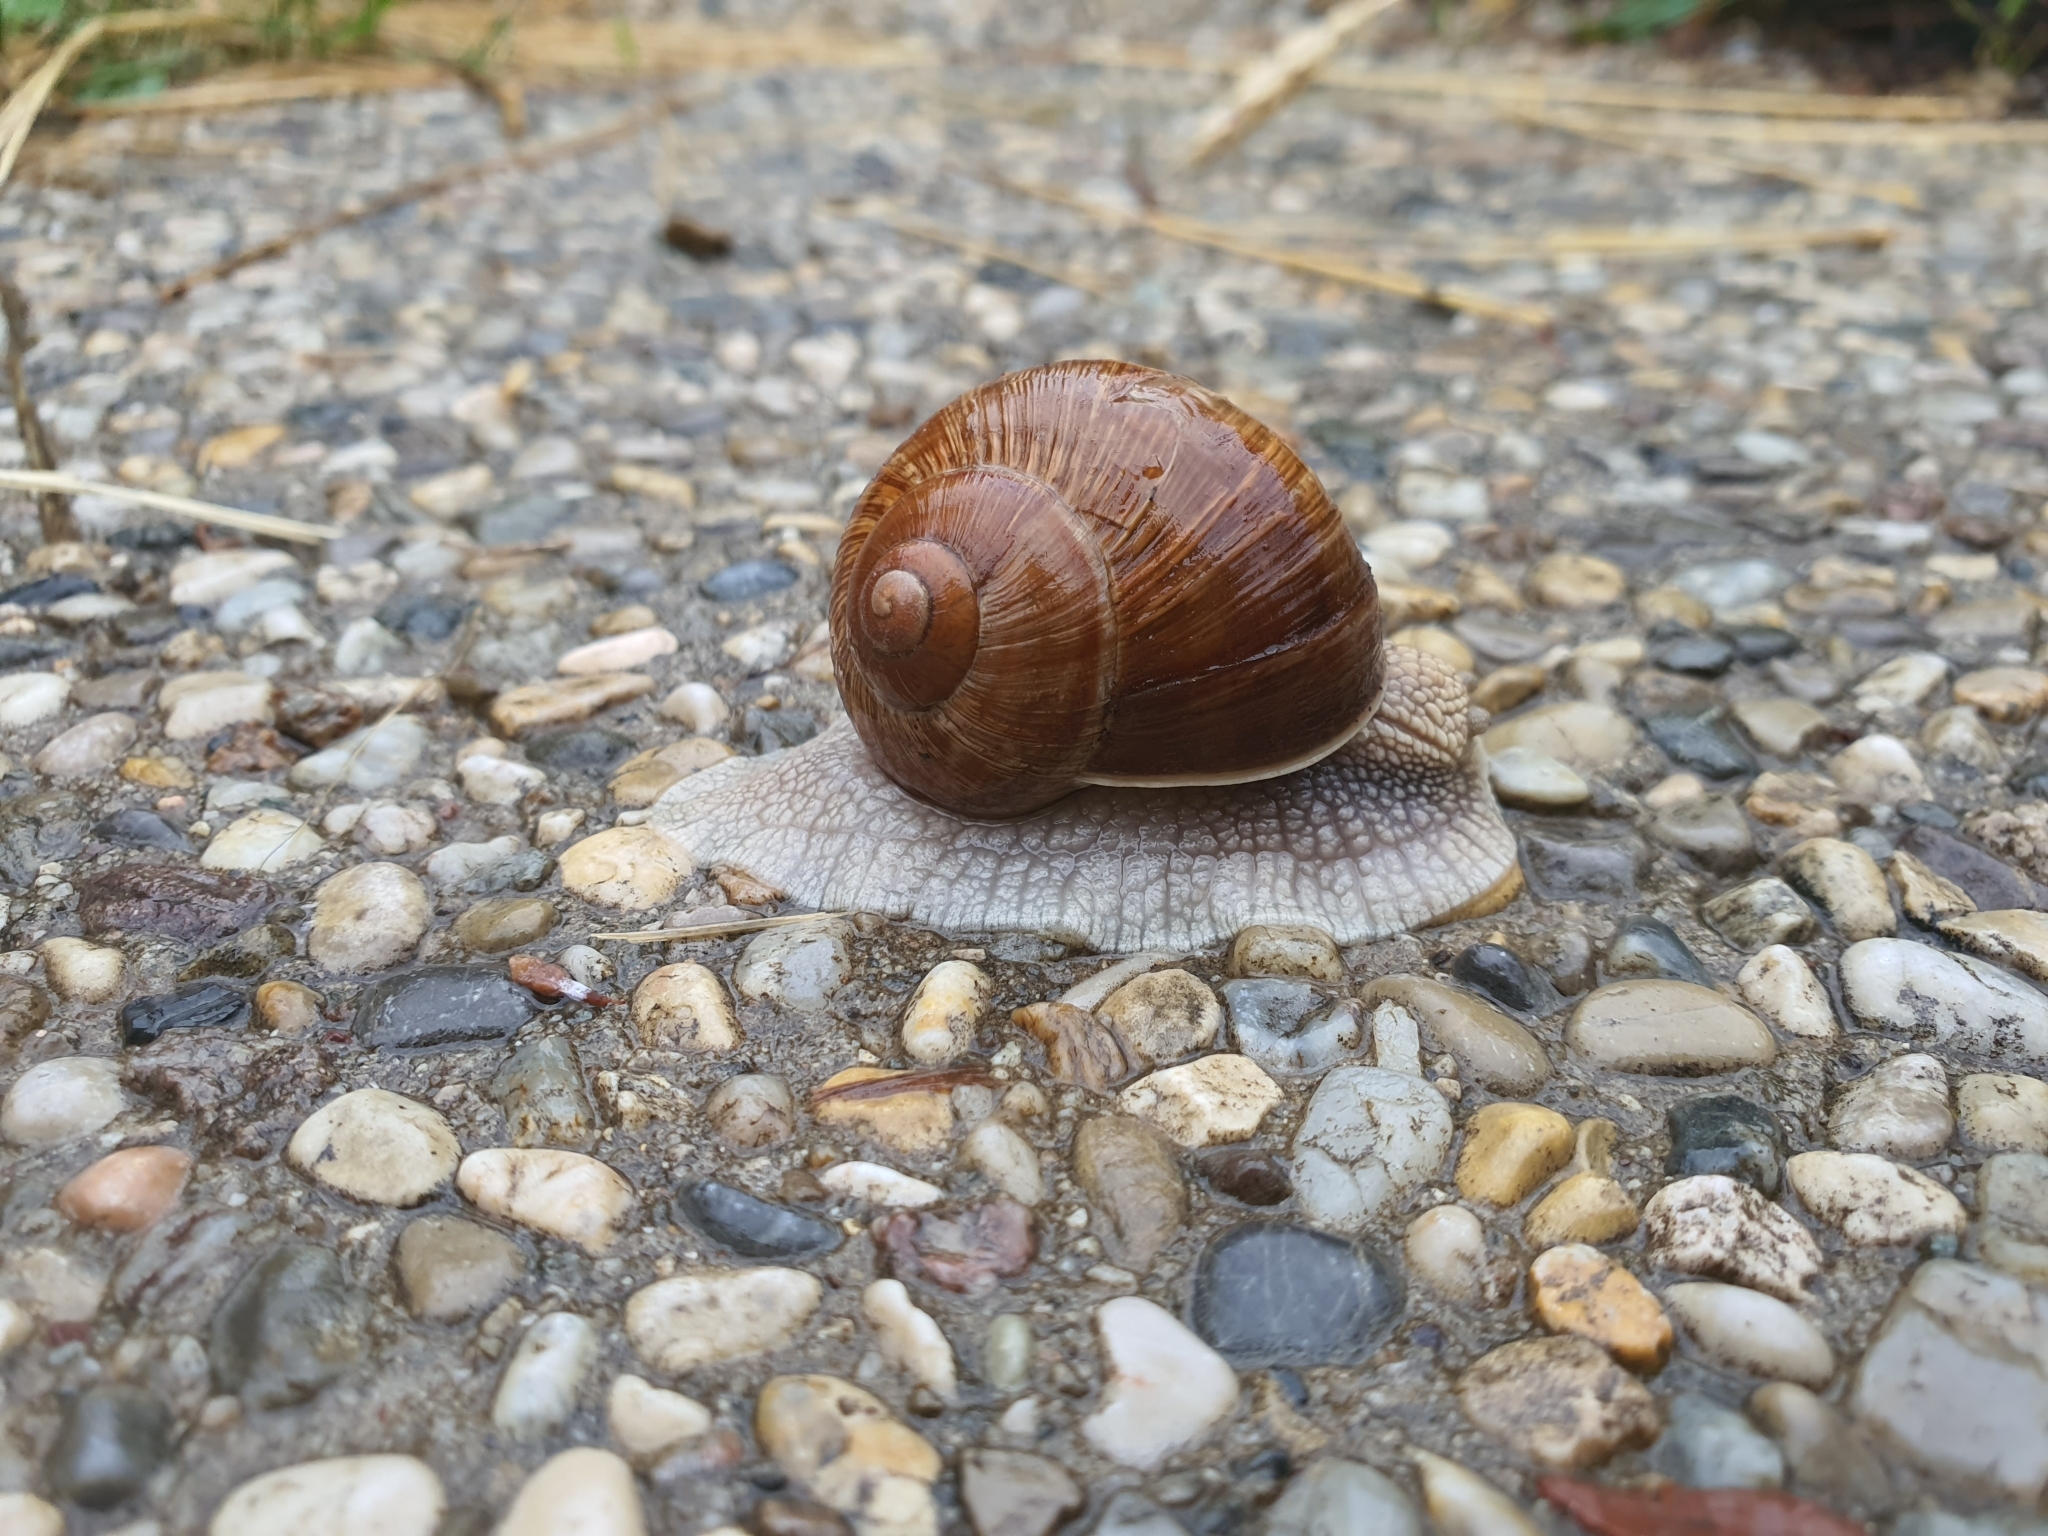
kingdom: Animalia
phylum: Mollusca
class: Gastropoda
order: Stylommatophora
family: Helicidae
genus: Helix
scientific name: Helix pomatia
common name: Roman snail
